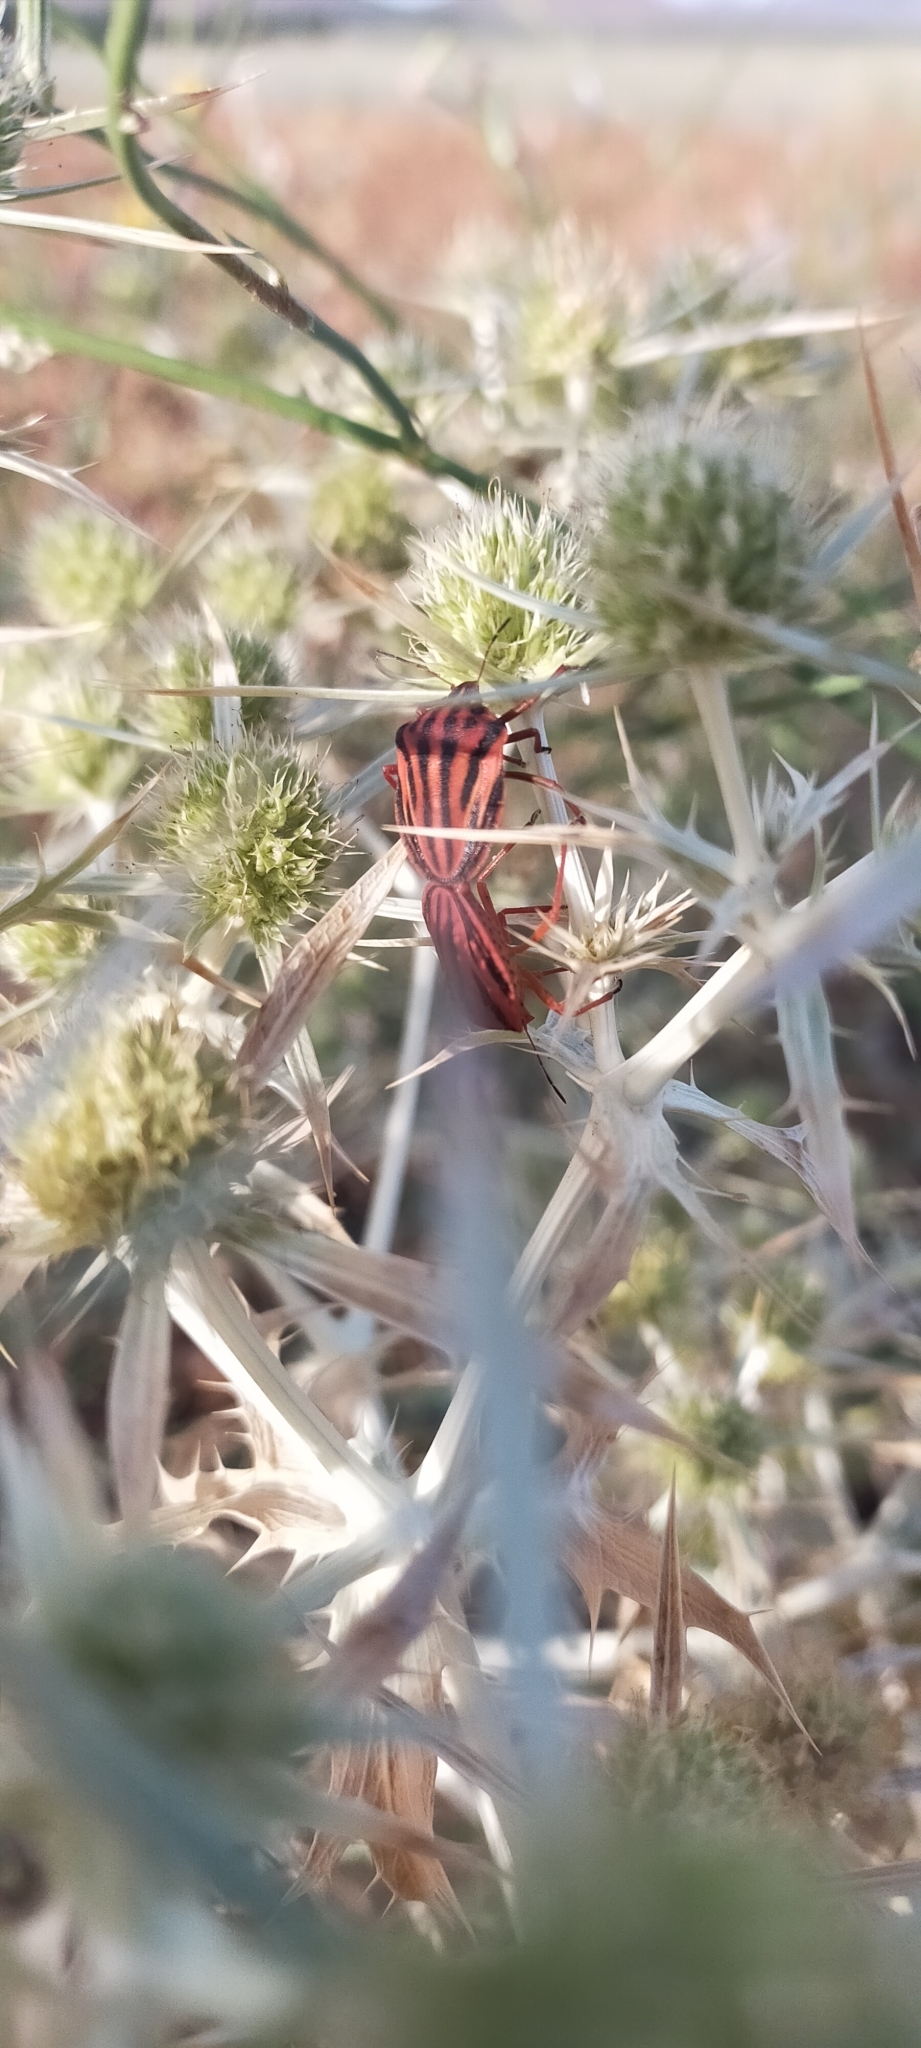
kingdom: Animalia
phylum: Arthropoda
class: Insecta
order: Hemiptera
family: Pentatomidae
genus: Graphosoma
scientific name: Graphosoma semipunctatum
